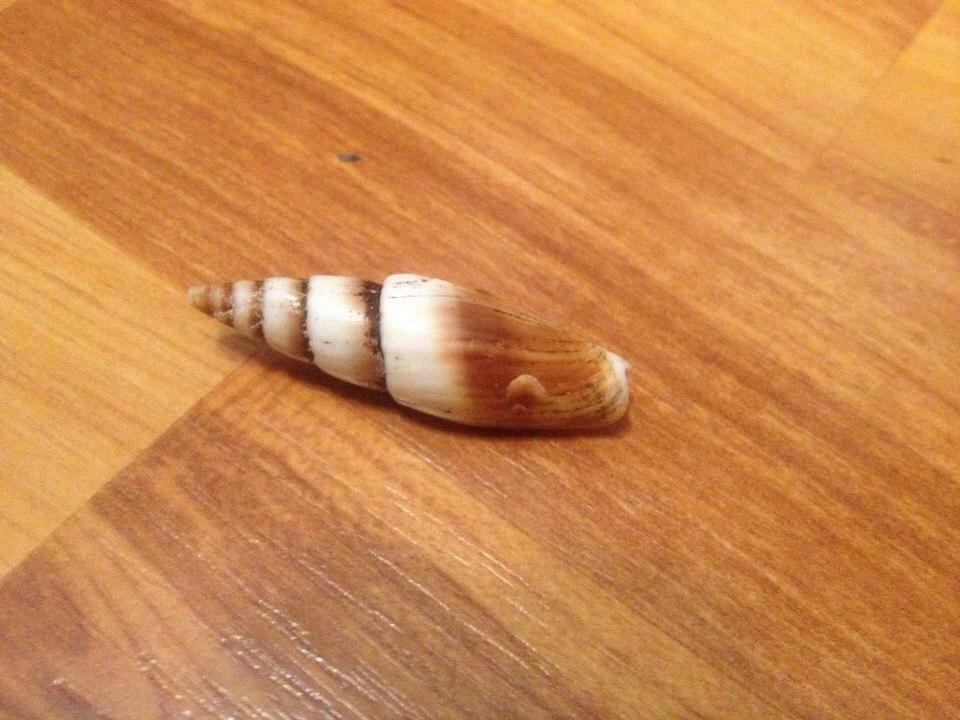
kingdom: Animalia
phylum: Mollusca
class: Gastropoda
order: Neogastropoda
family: Mitridae
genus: Episcomitra
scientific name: Episcomitra zonata
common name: Zoned miter
